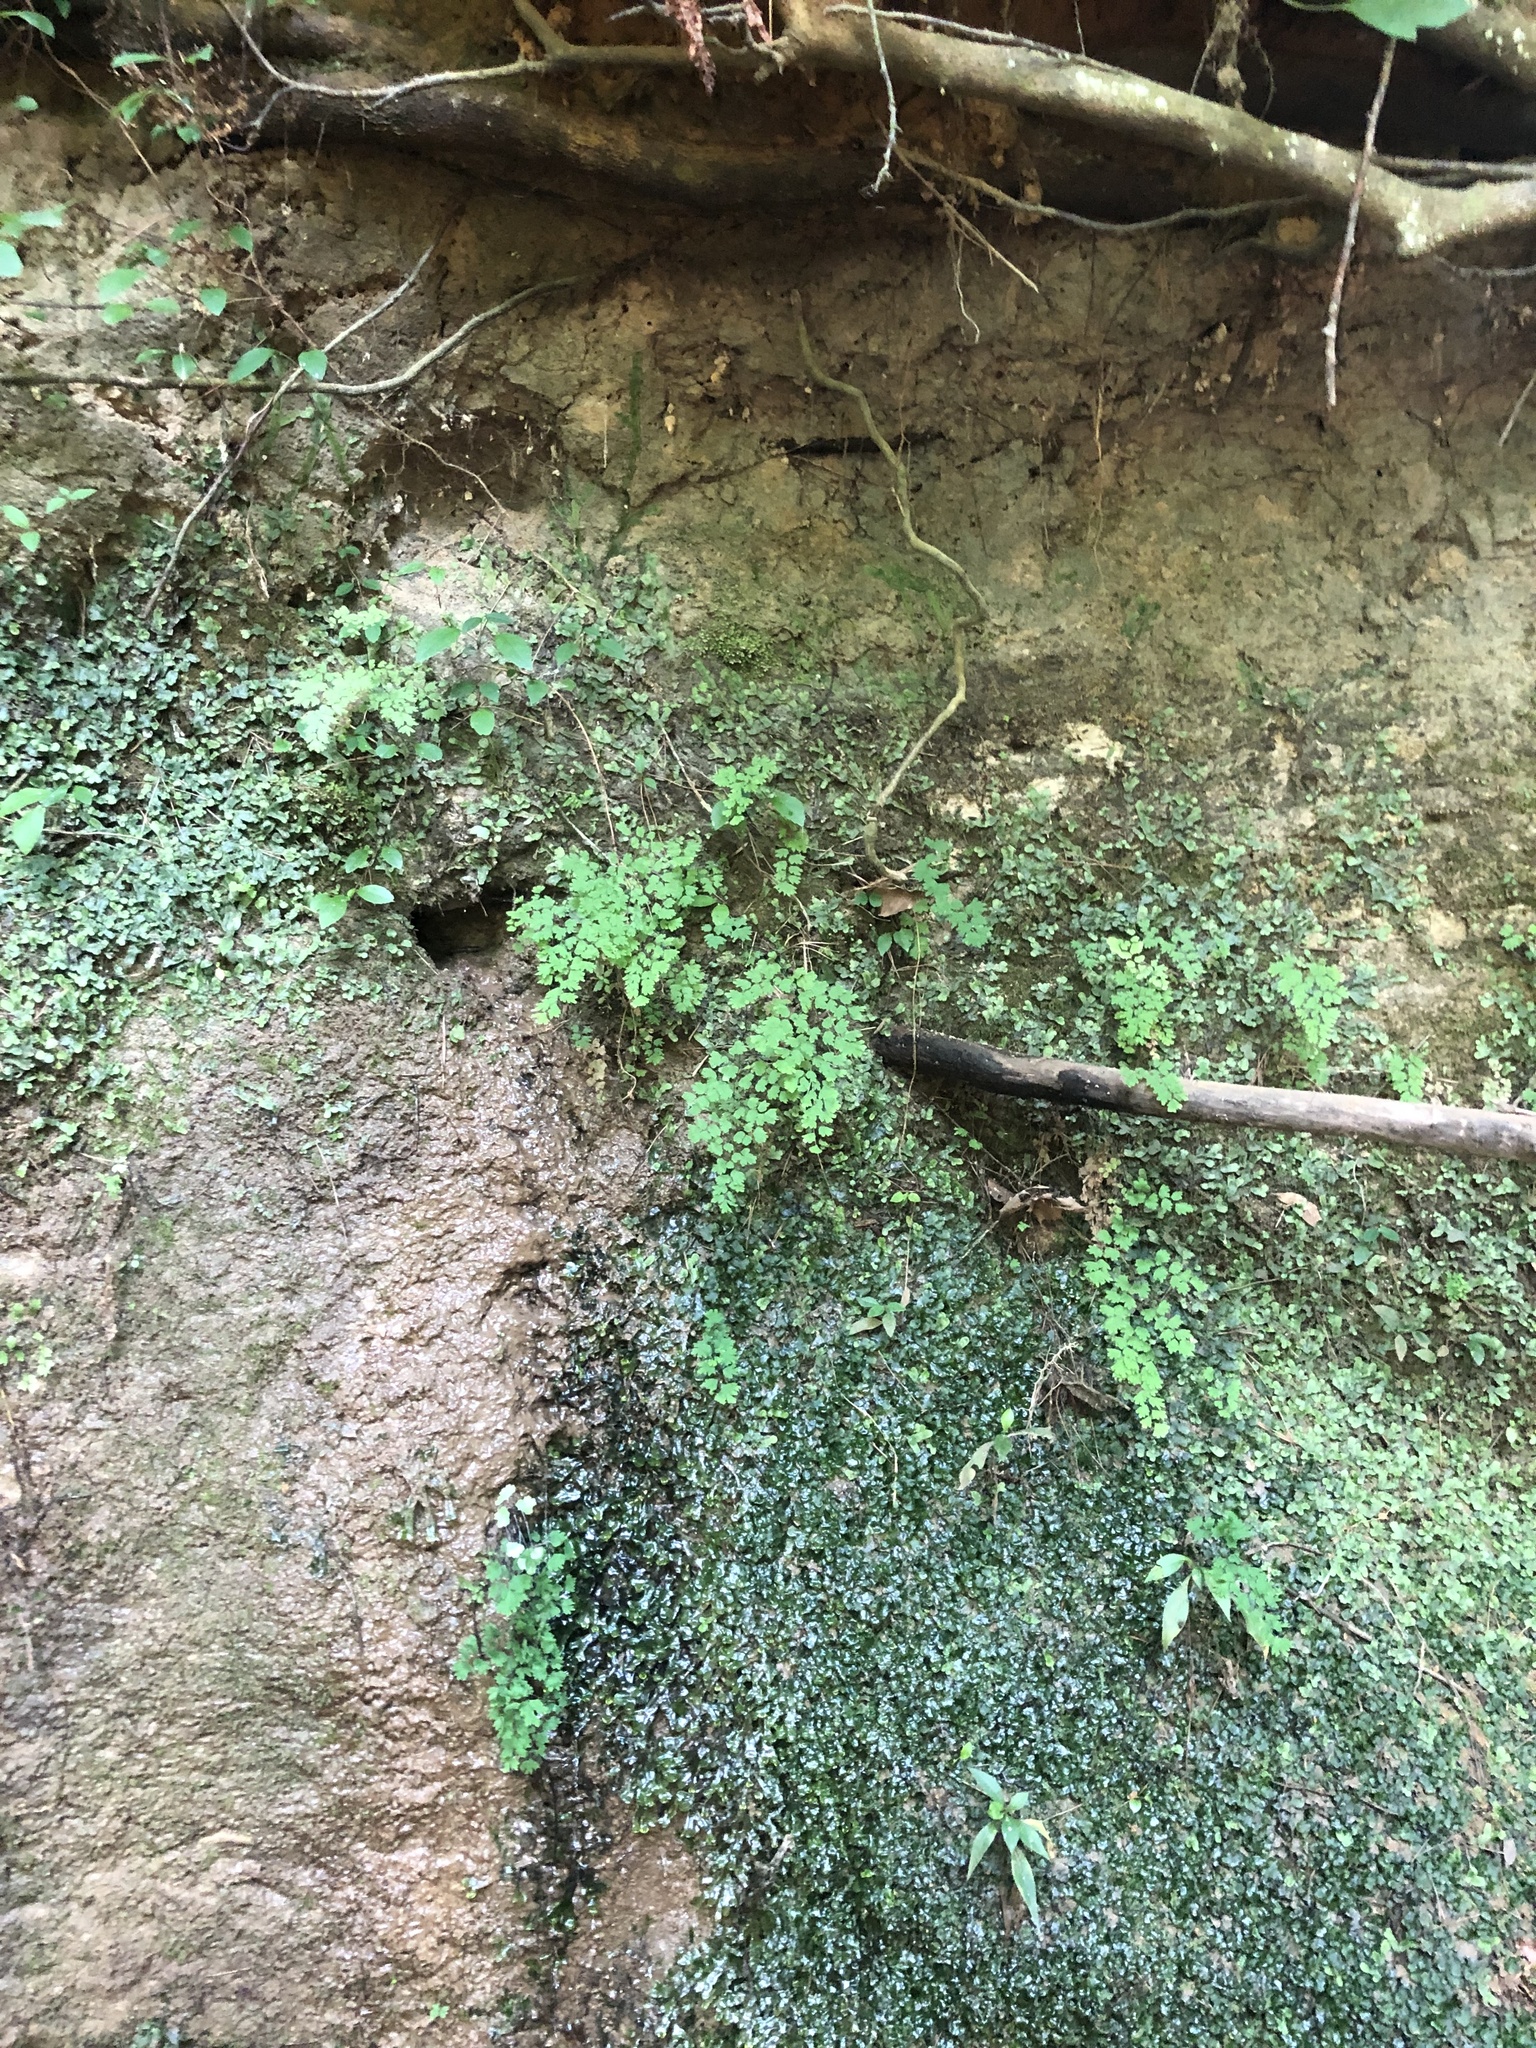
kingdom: Plantae
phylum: Tracheophyta
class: Polypodiopsida
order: Polypodiales
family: Pteridaceae
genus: Adiantum
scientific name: Adiantum capillus-veneris
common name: Maidenhair fern
